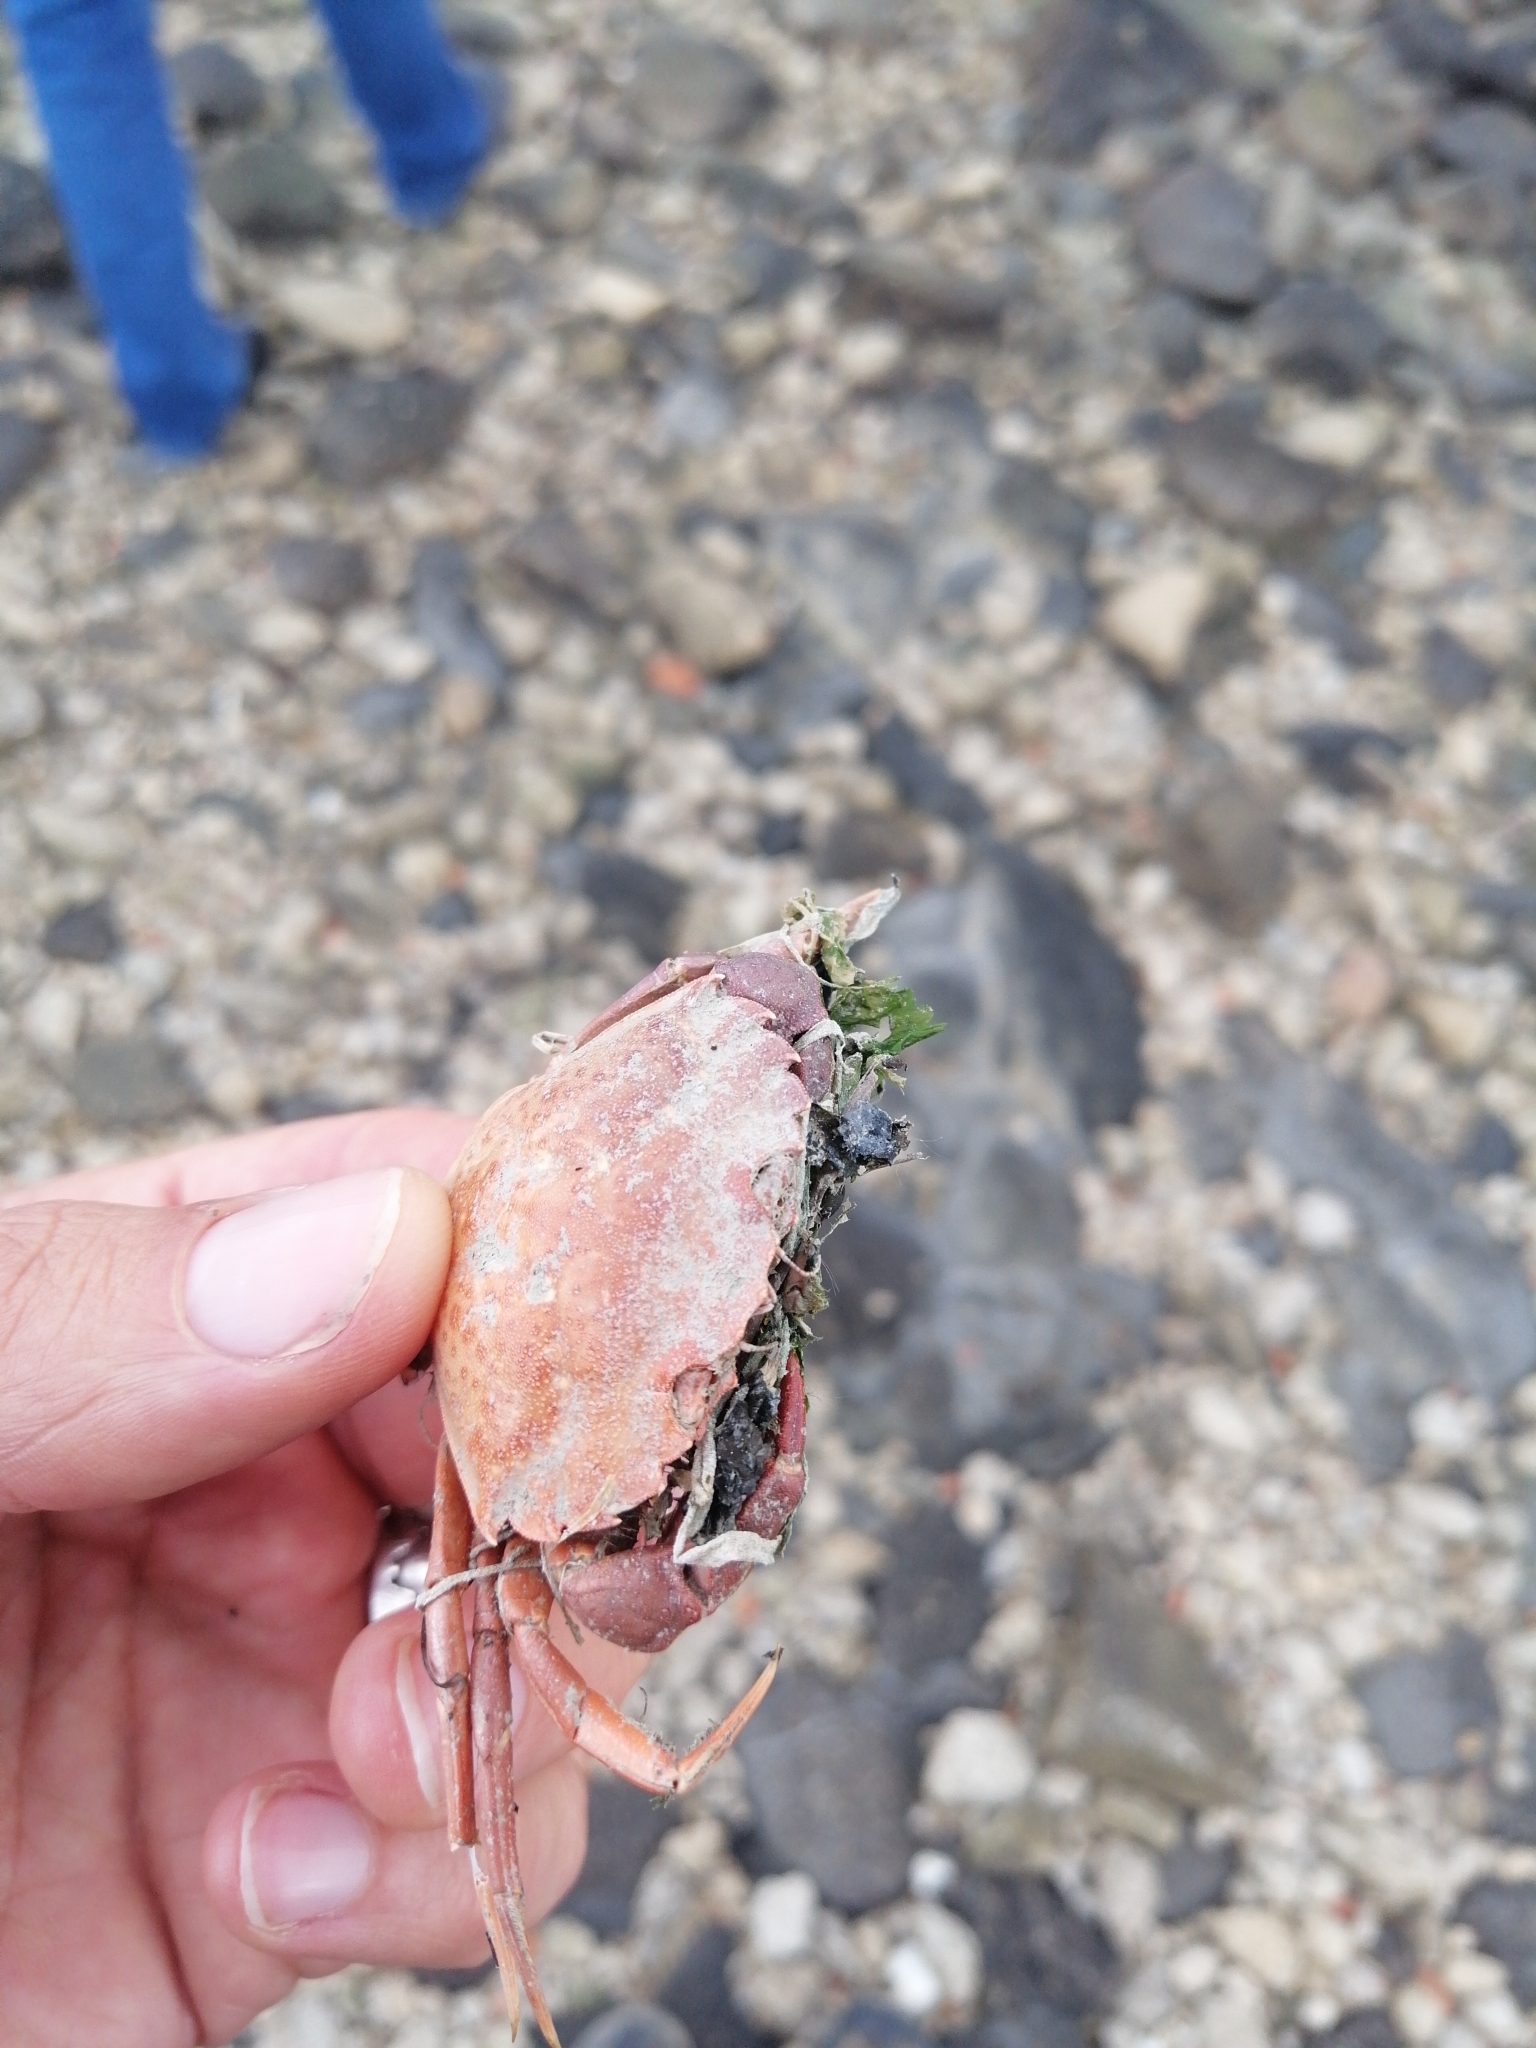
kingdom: Animalia
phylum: Arthropoda
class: Malacostraca
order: Decapoda
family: Carcinidae
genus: Carcinus
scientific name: Carcinus maenas
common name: European green crab
